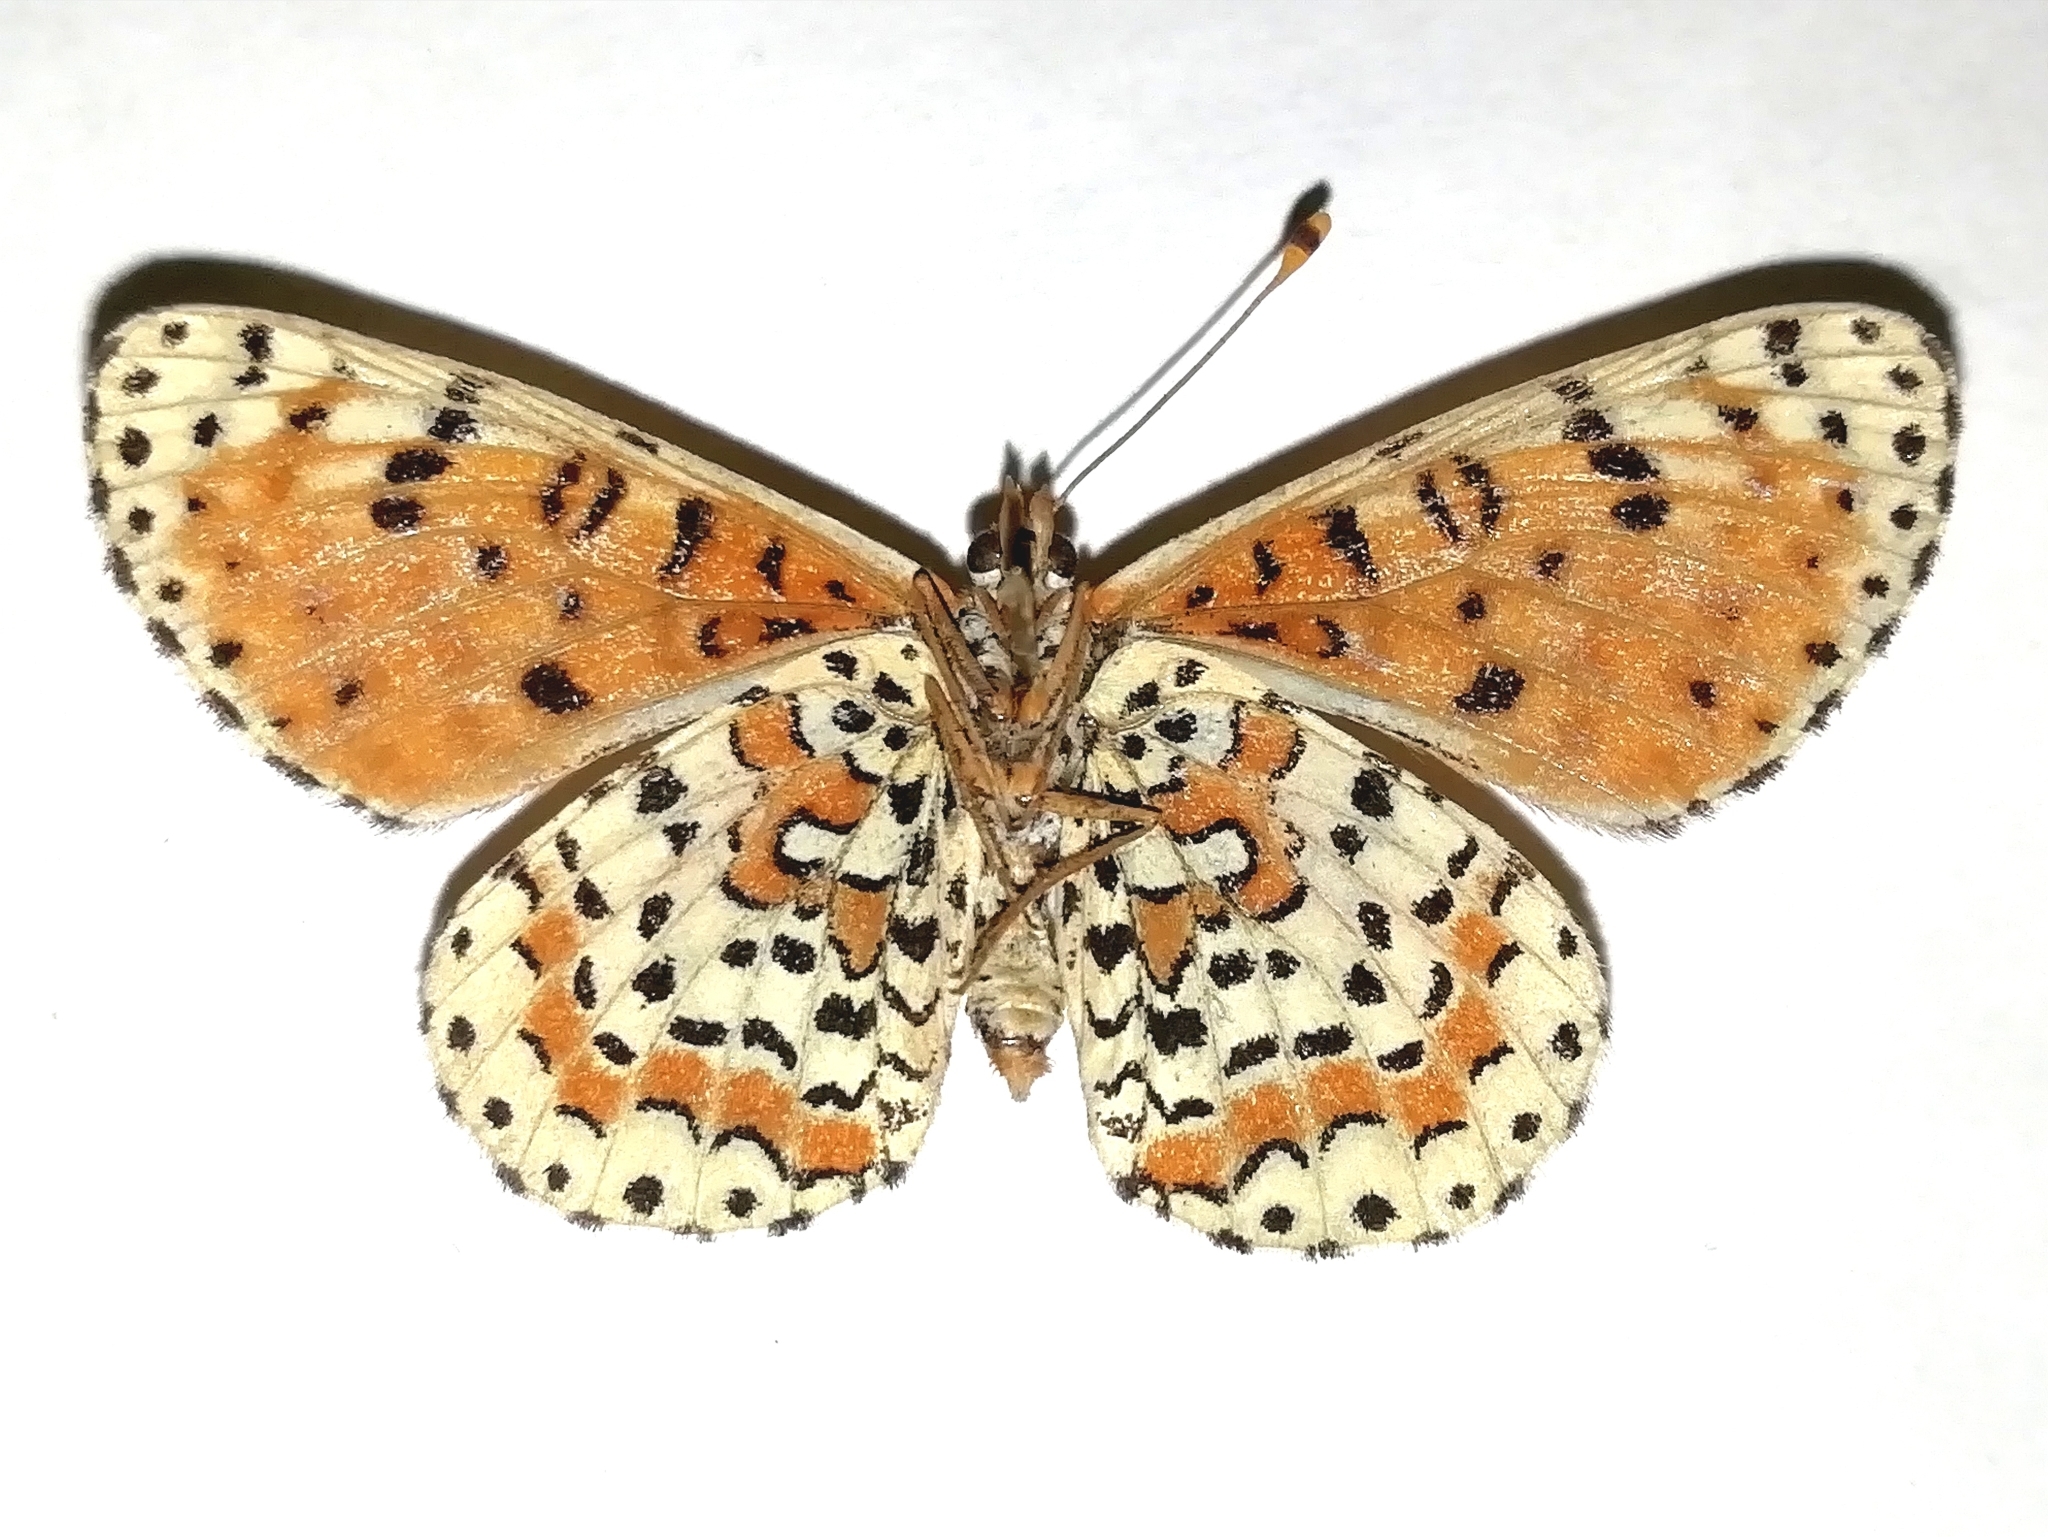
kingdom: Animalia
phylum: Arthropoda
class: Insecta
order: Lepidoptera
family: Nymphalidae
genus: Melitaea
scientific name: Melitaea didyma
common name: Spotted fritillary
